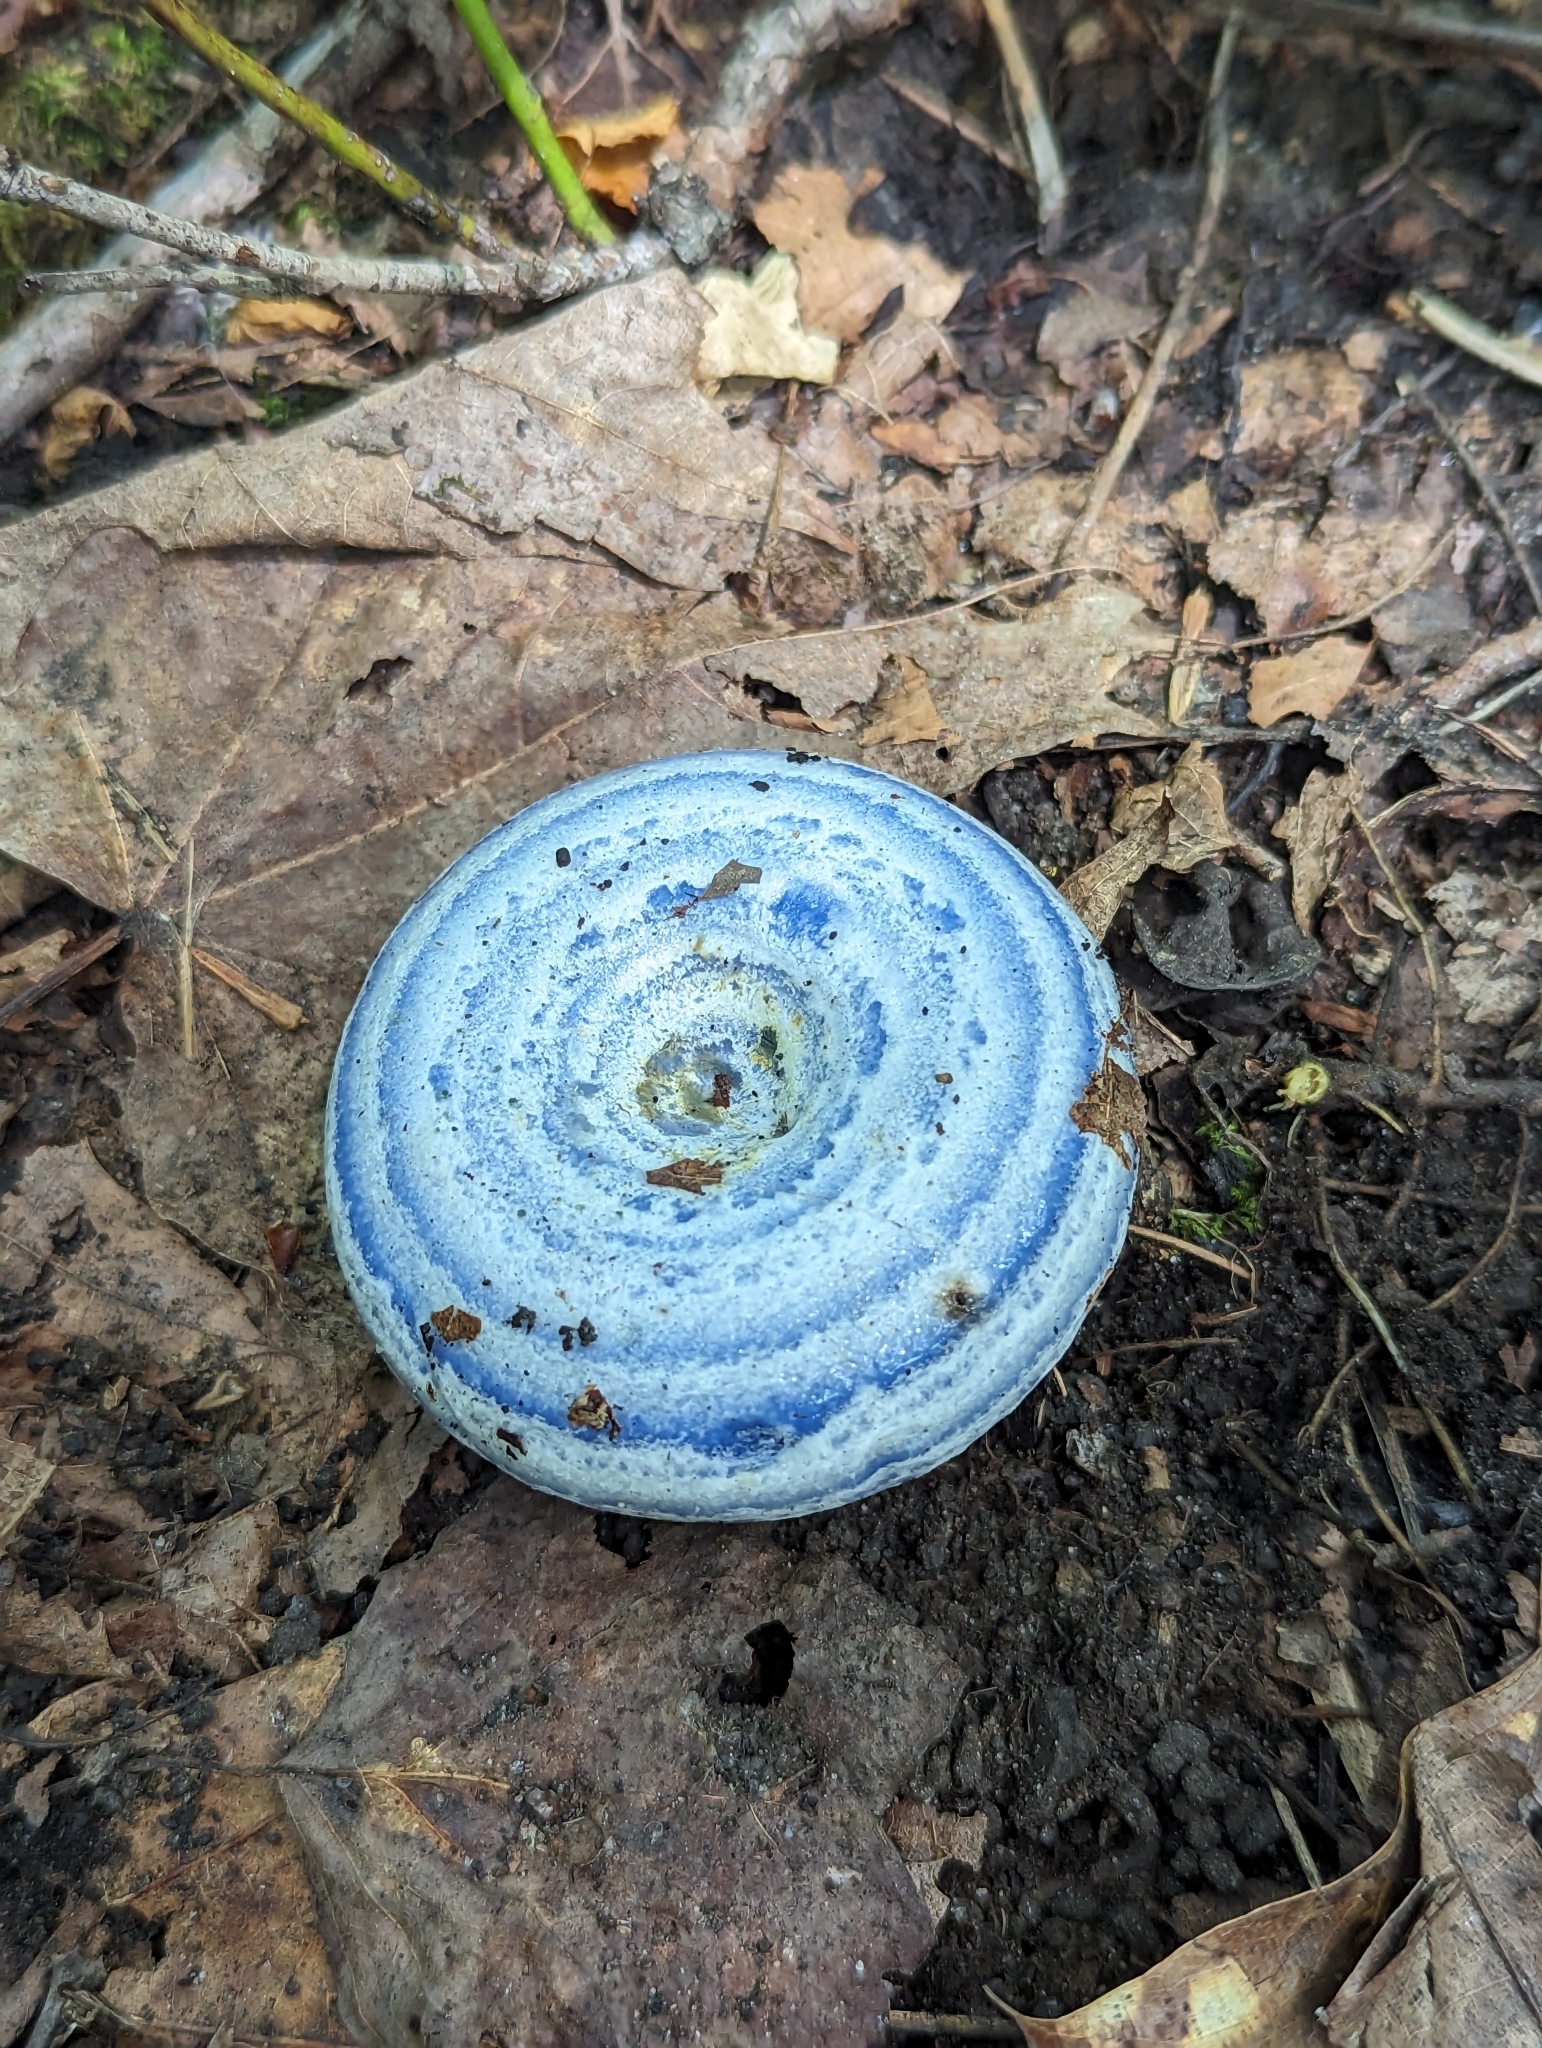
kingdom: Fungi
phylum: Basidiomycota
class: Agaricomycetes
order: Russulales
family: Russulaceae
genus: Lactarius
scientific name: Lactarius indigo
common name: Indigo milk cap
